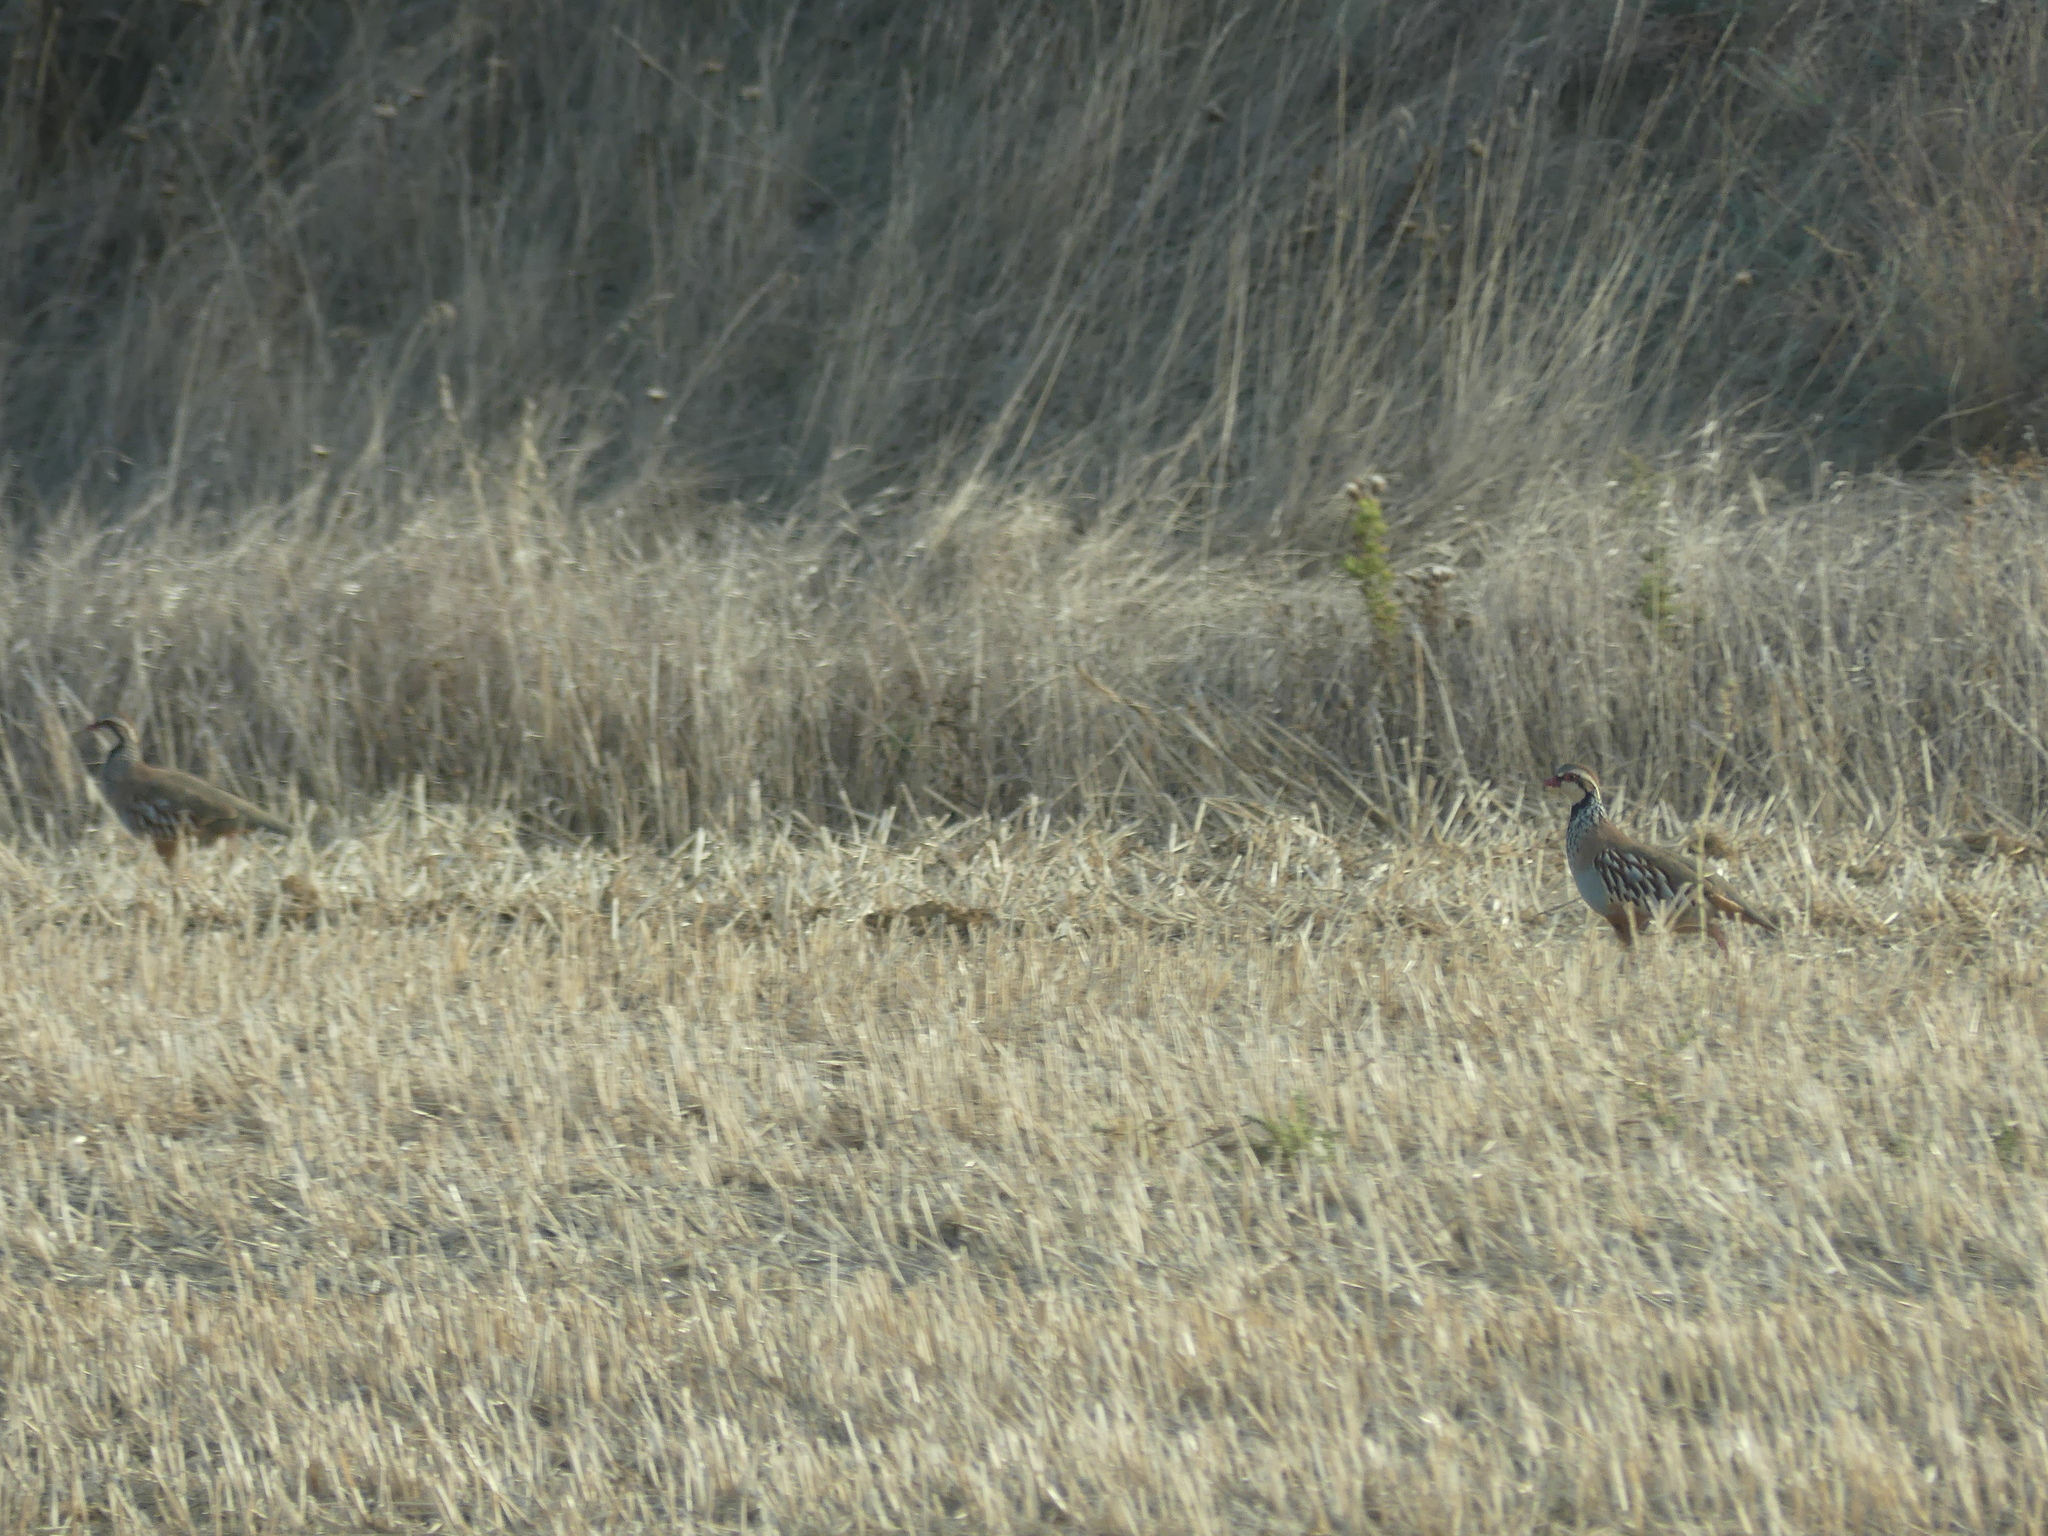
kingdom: Animalia
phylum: Chordata
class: Aves
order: Galliformes
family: Phasianidae
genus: Alectoris
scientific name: Alectoris rufa
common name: Red-legged partridge
